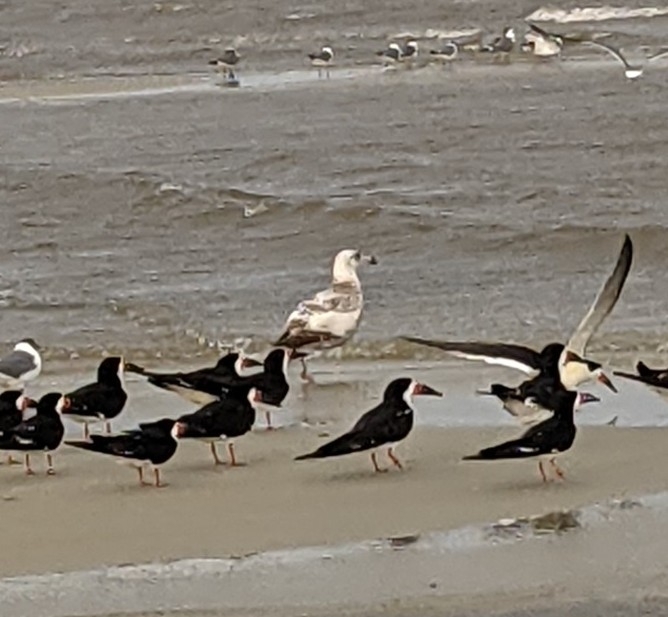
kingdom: Animalia
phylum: Chordata
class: Aves
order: Charadriiformes
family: Laridae
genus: Rynchops
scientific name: Rynchops niger
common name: Black skimmer
